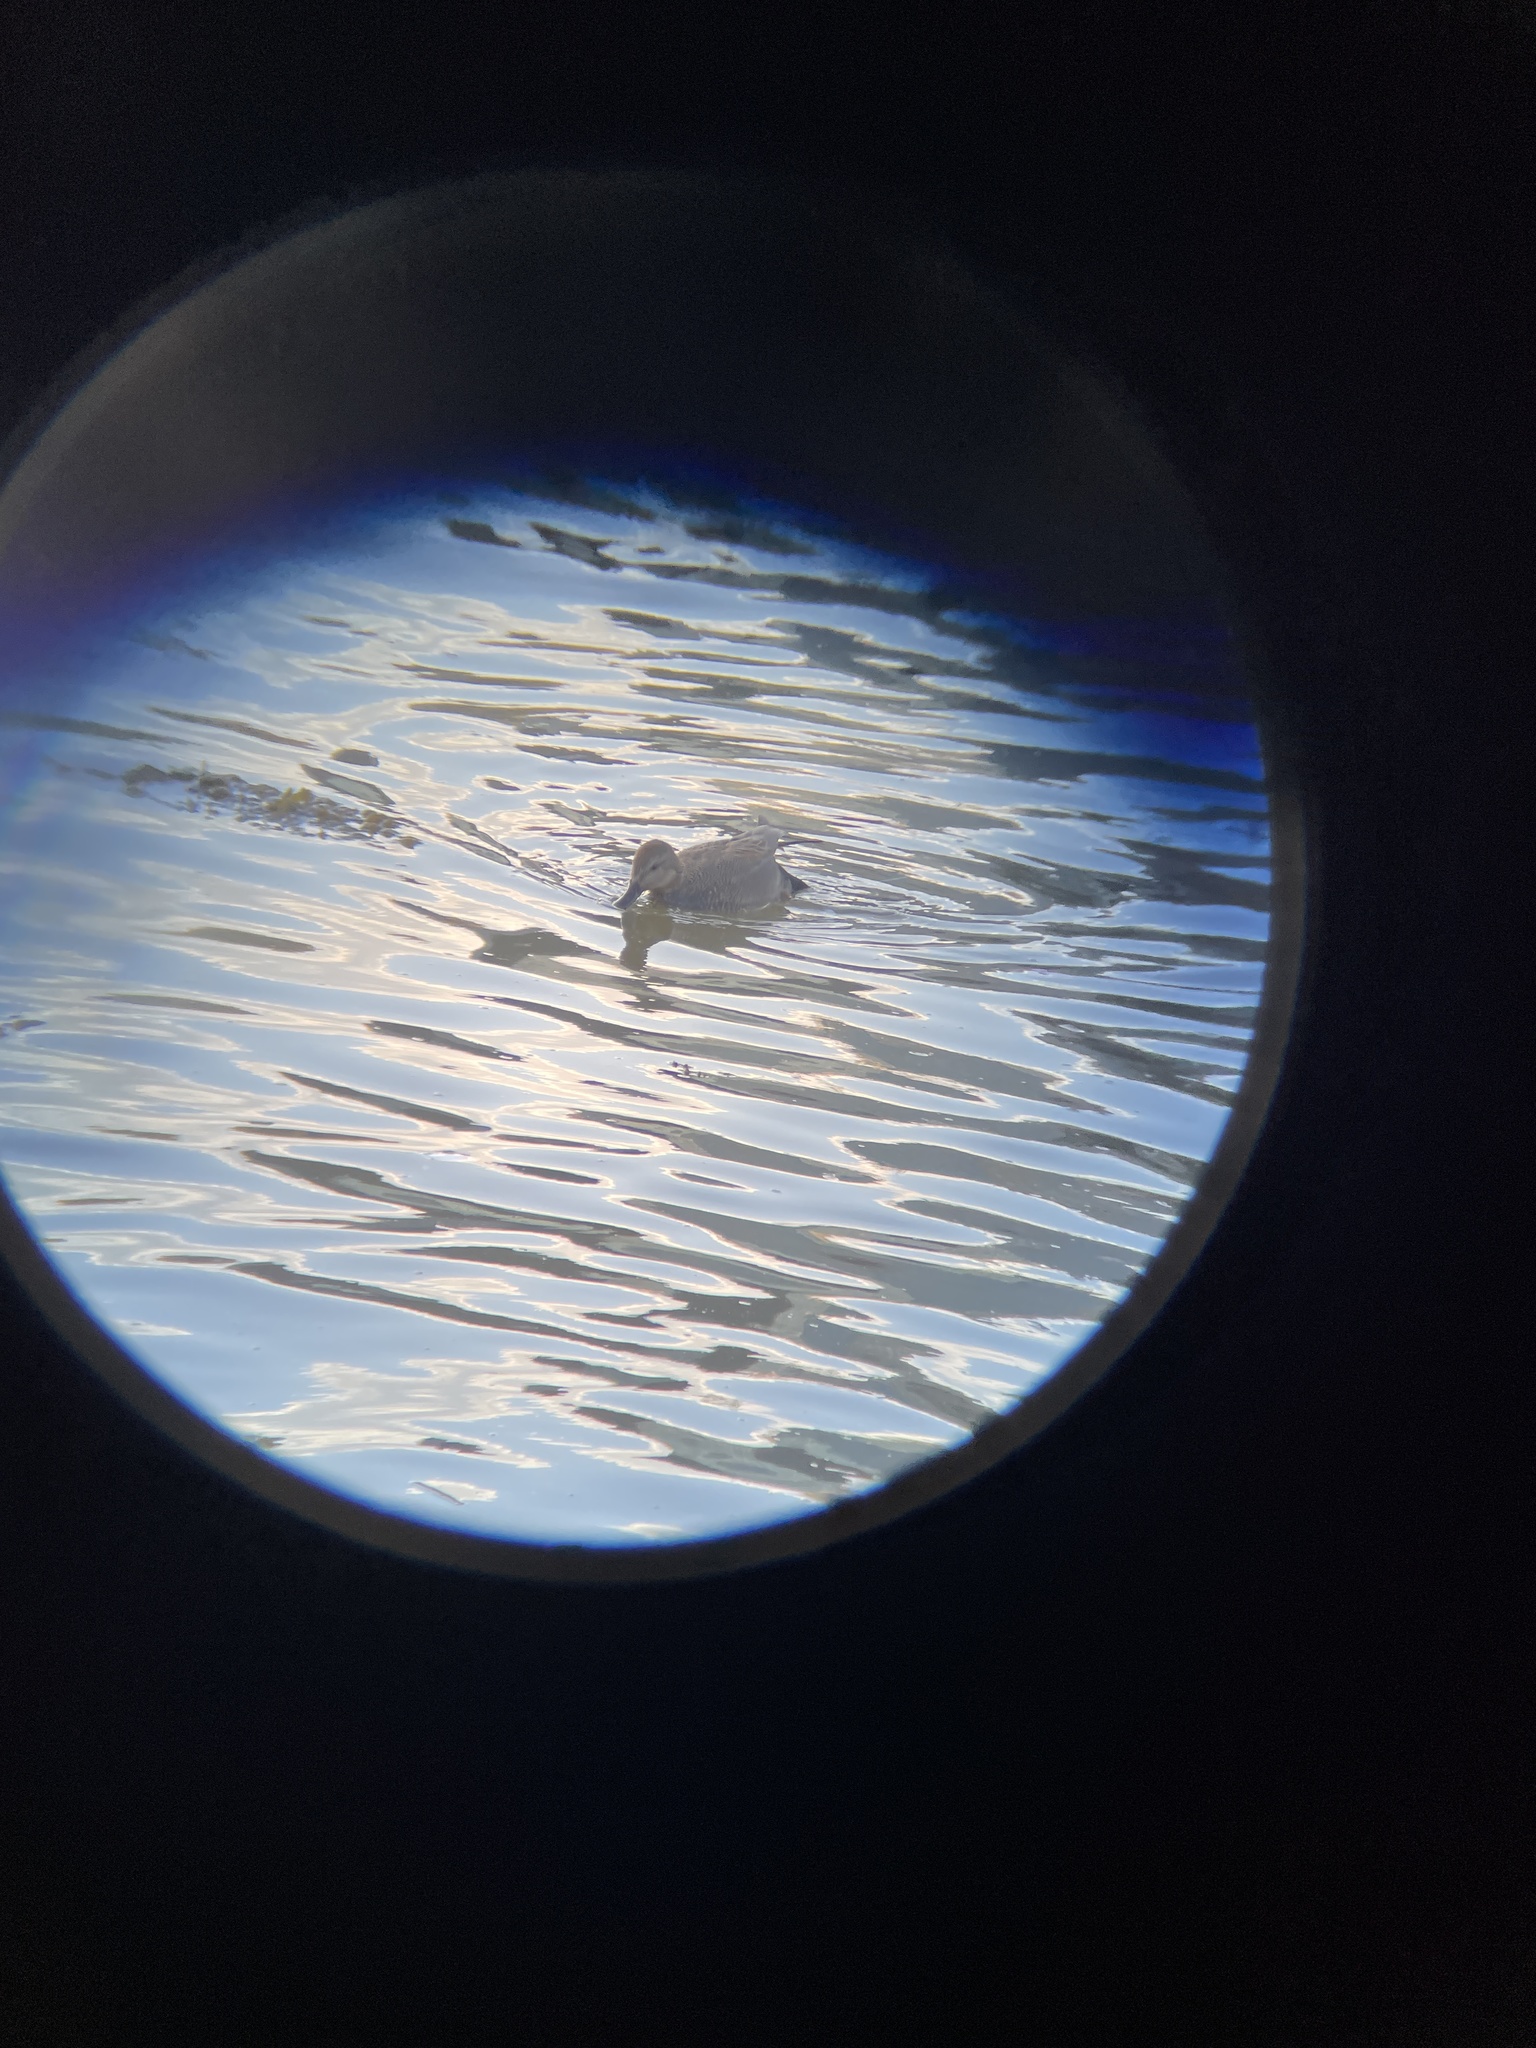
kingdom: Animalia
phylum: Chordata
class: Aves
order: Anseriformes
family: Anatidae
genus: Mareca
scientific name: Mareca strepera
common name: Gadwall
